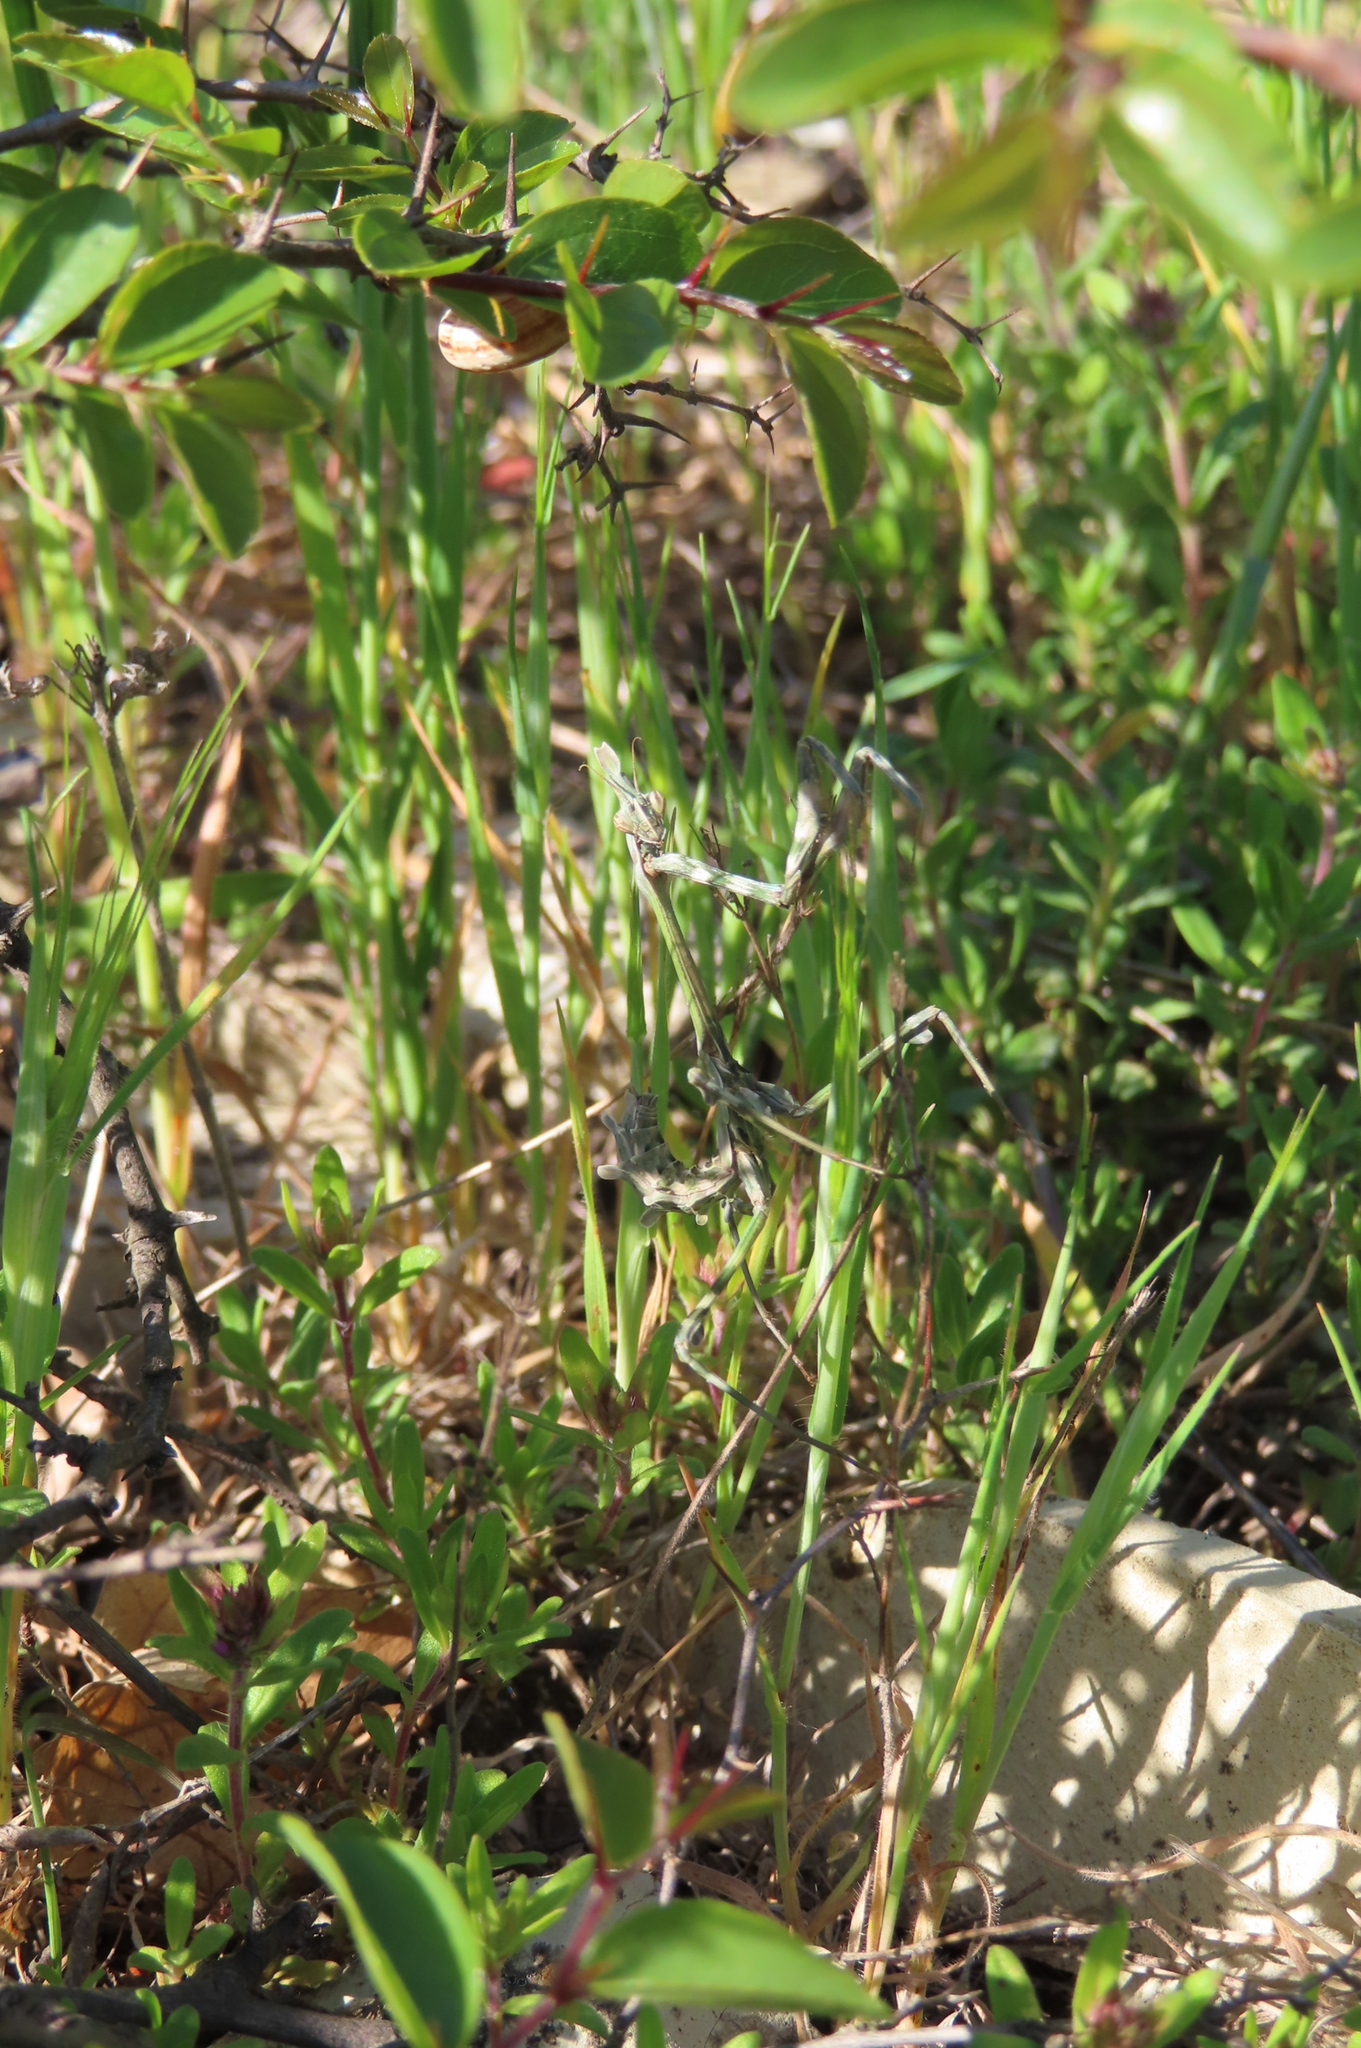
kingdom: Animalia
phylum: Arthropoda
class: Insecta
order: Mantodea
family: Empusidae
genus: Empusa
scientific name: Empusa fasciata
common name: Devil's mare
